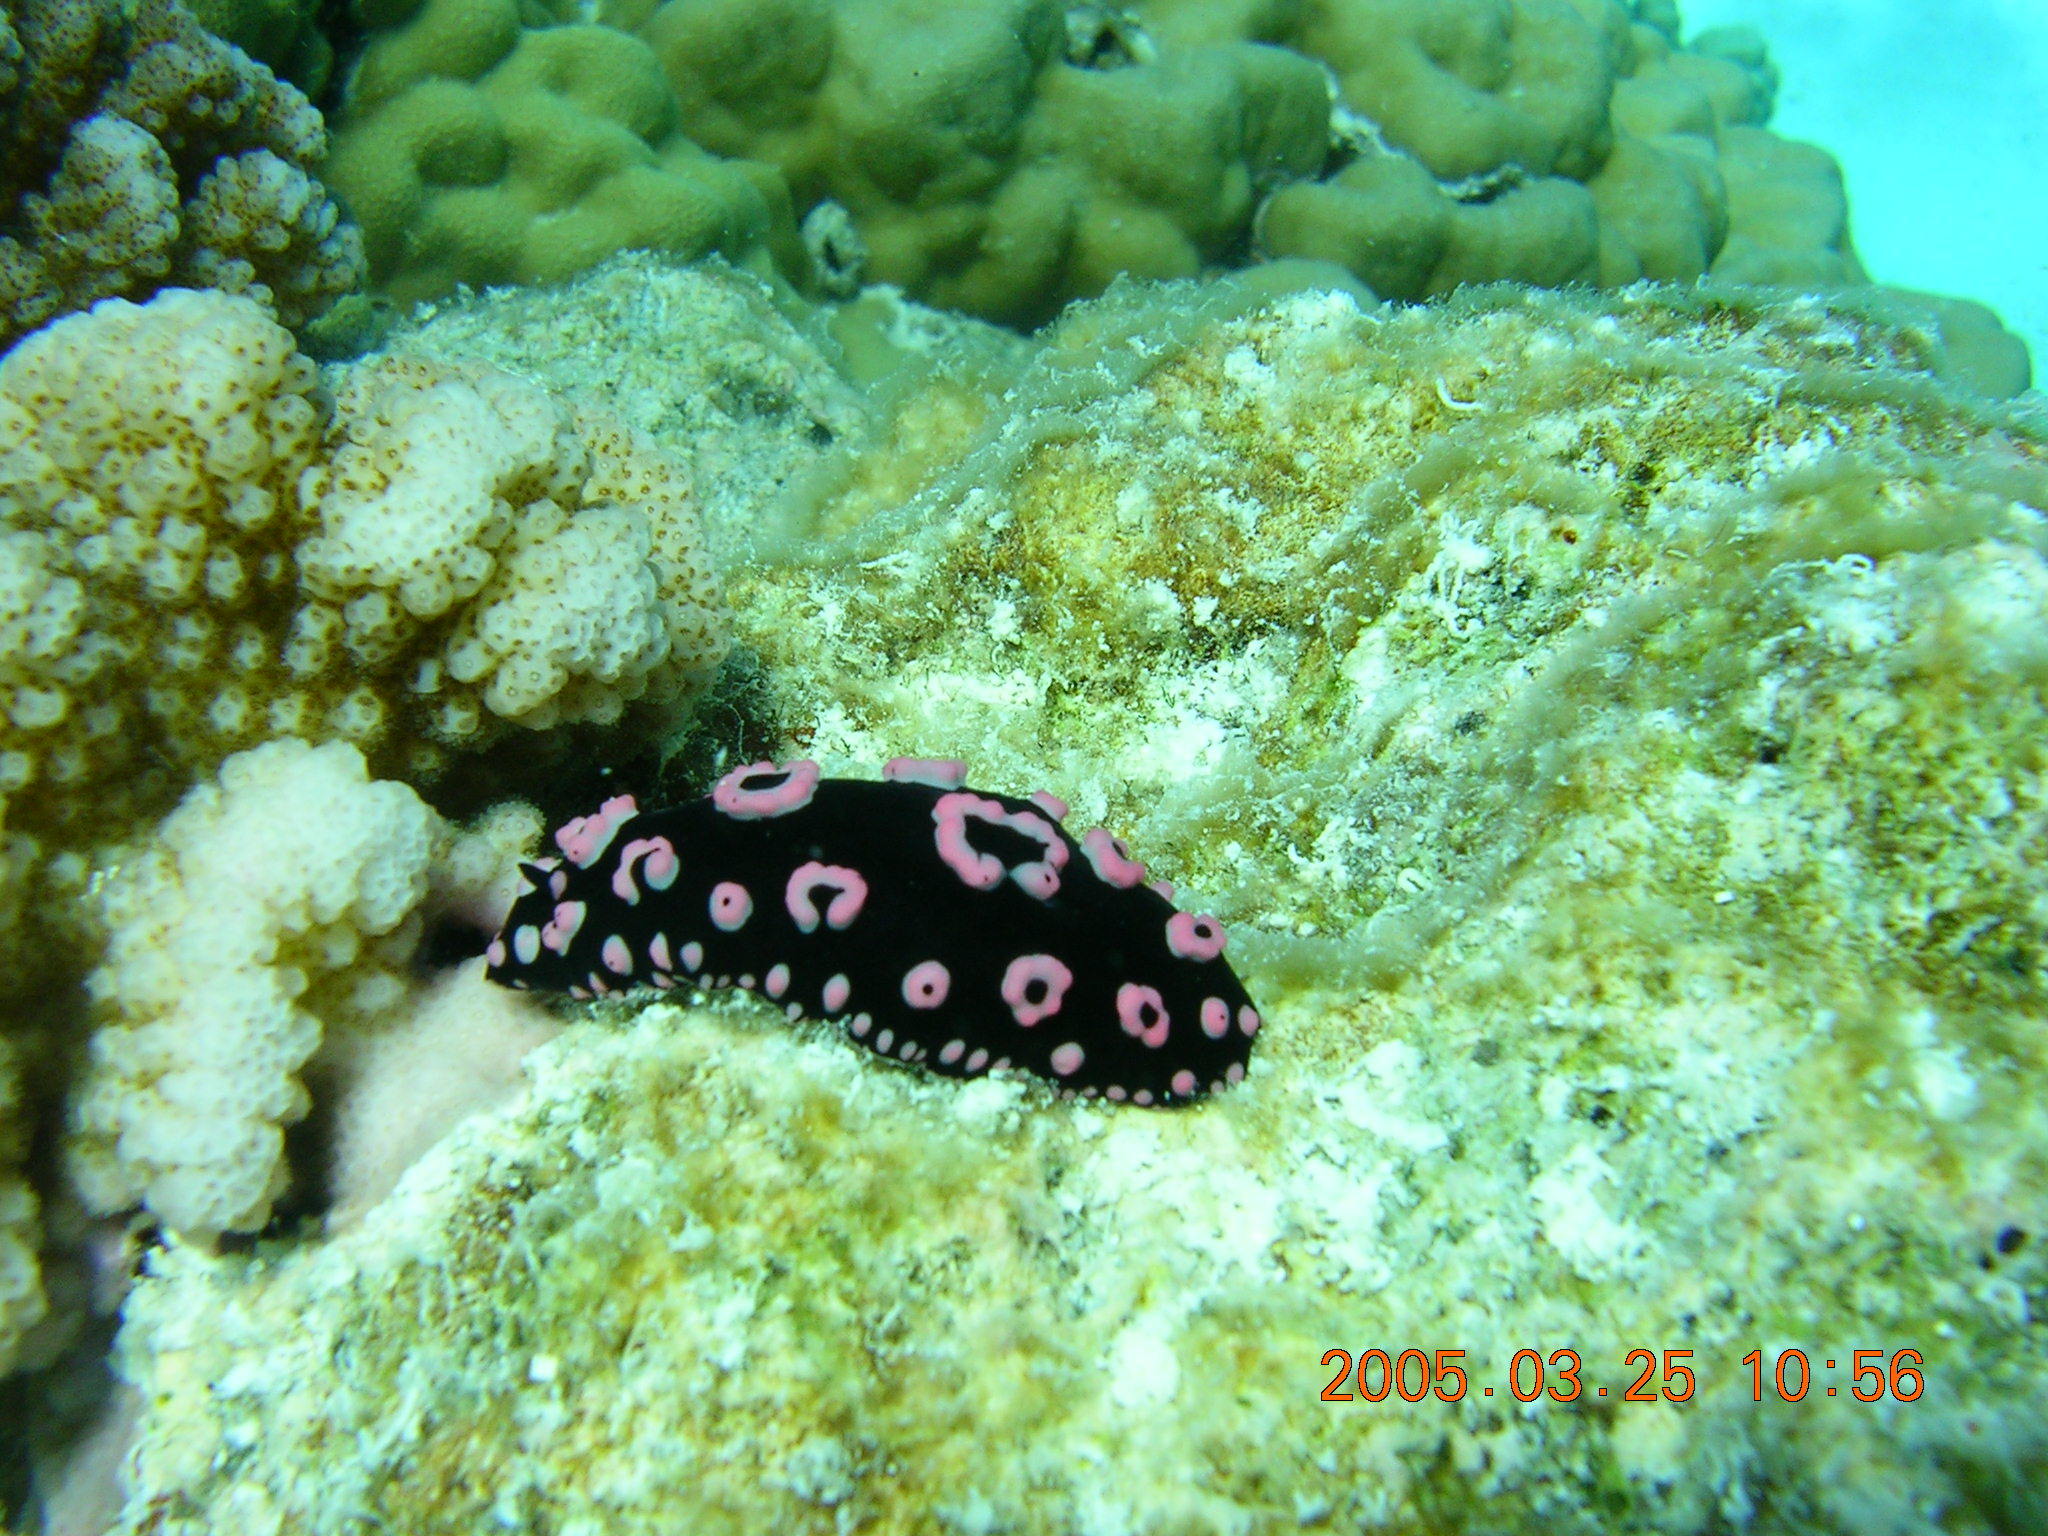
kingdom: Animalia
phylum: Mollusca
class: Gastropoda
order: Nudibranchia
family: Phyllidiidae
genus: Phyllidiella
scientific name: Phyllidiella annulata
